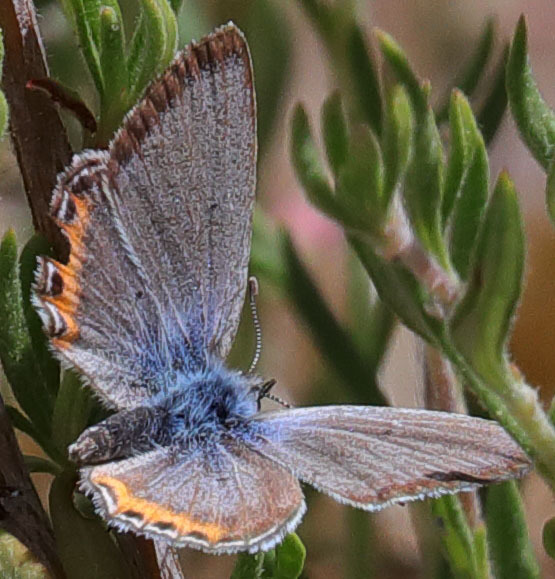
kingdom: Animalia
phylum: Arthropoda
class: Insecta
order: Lepidoptera
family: Lycaenidae
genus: Icaricia
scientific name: Icaricia lupini
